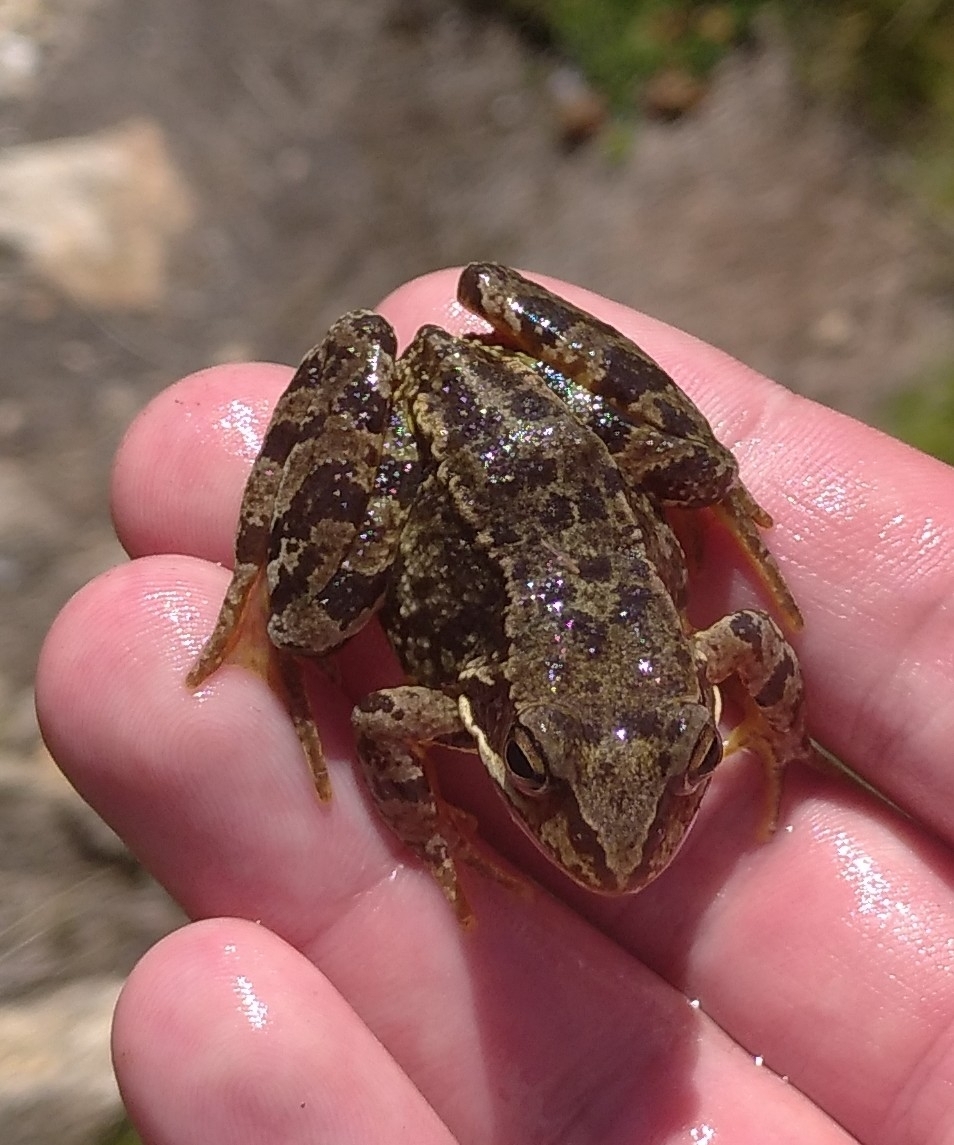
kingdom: Animalia
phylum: Chordata
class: Amphibia
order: Anura
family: Ranidae
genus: Rana
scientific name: Rana temporaria
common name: Common frog
